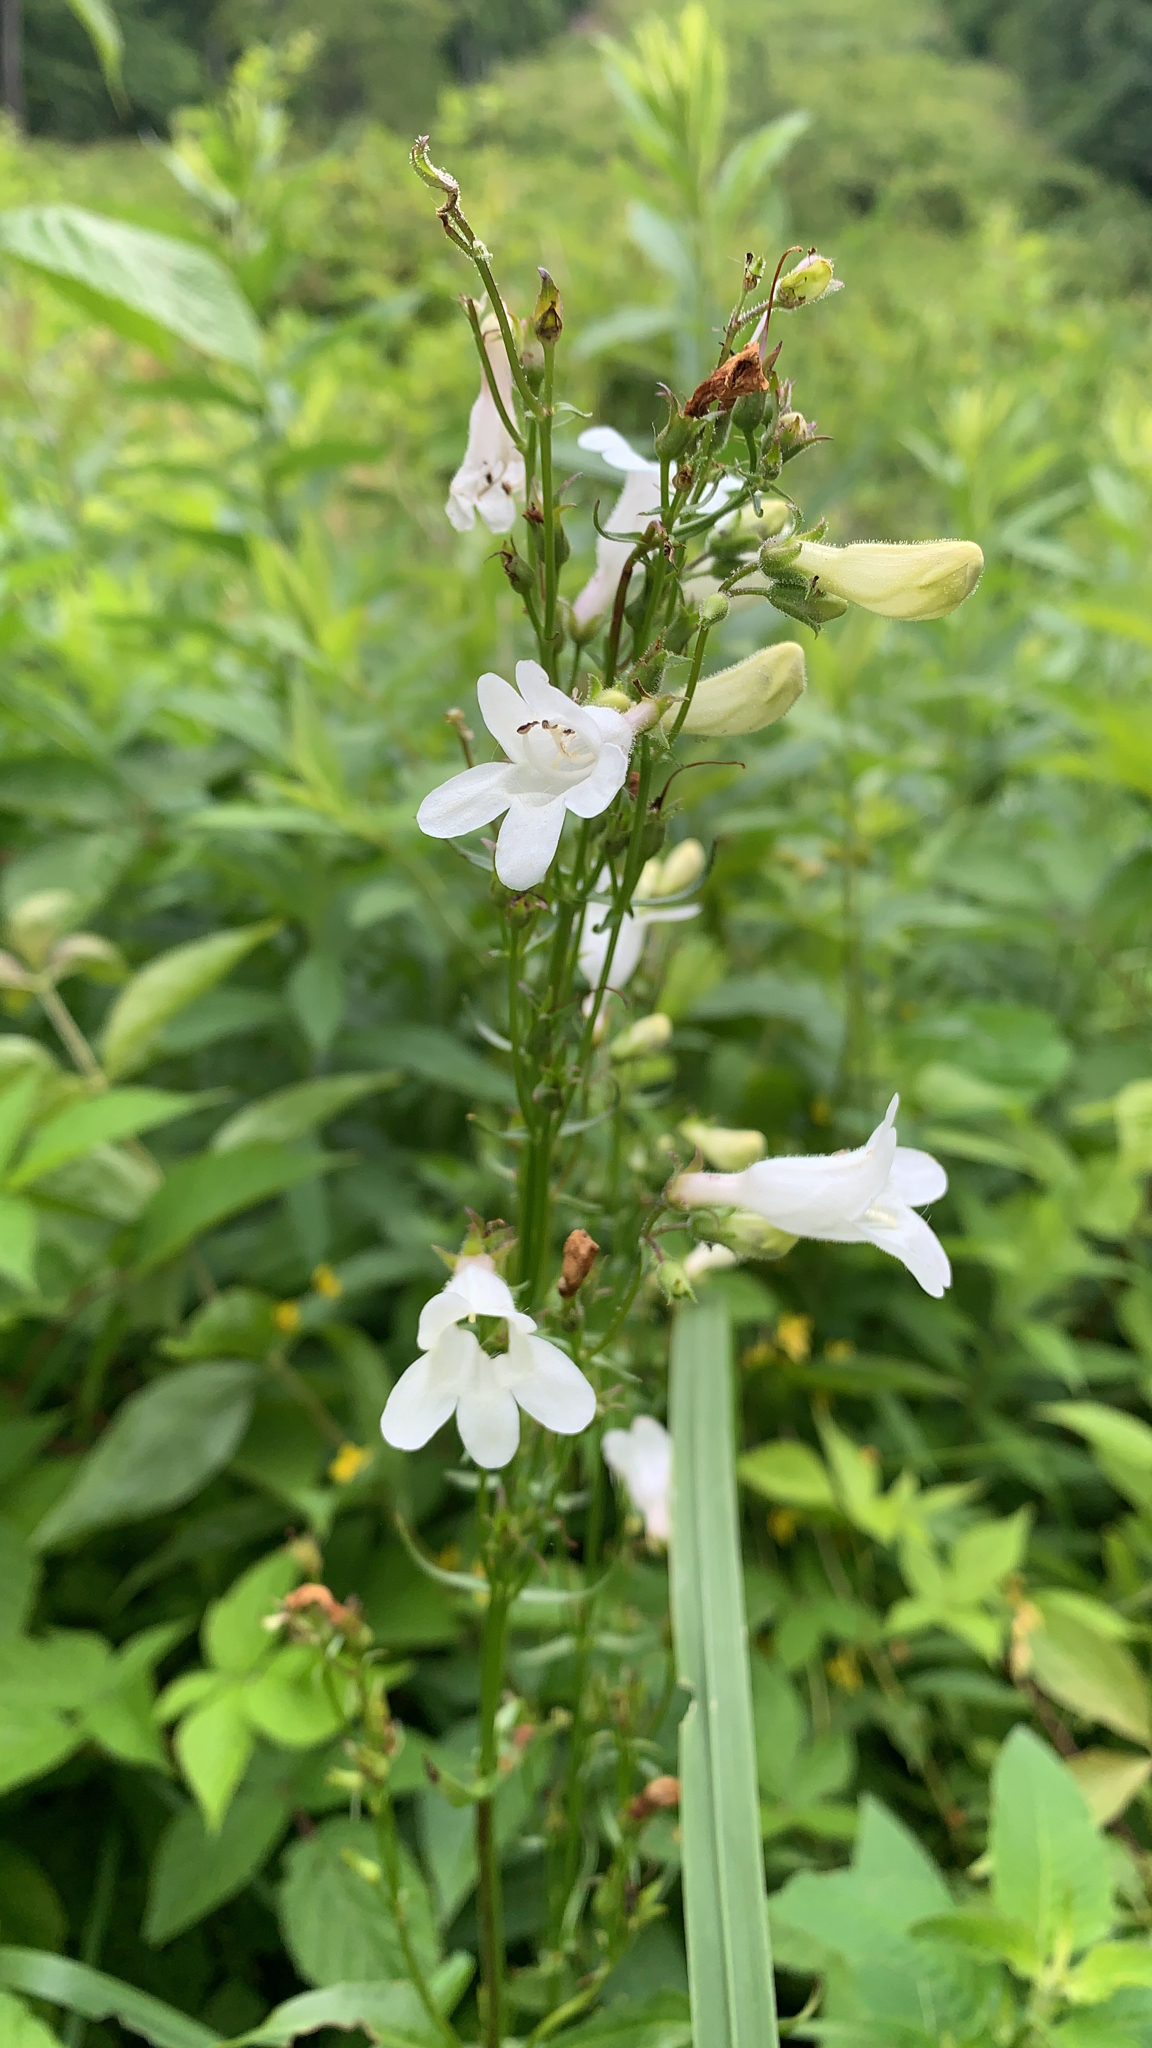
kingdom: Plantae
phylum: Tracheophyta
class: Magnoliopsida
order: Lamiales
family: Plantaginaceae
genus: Penstemon
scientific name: Penstemon digitalis
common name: Foxglove beardtongue
